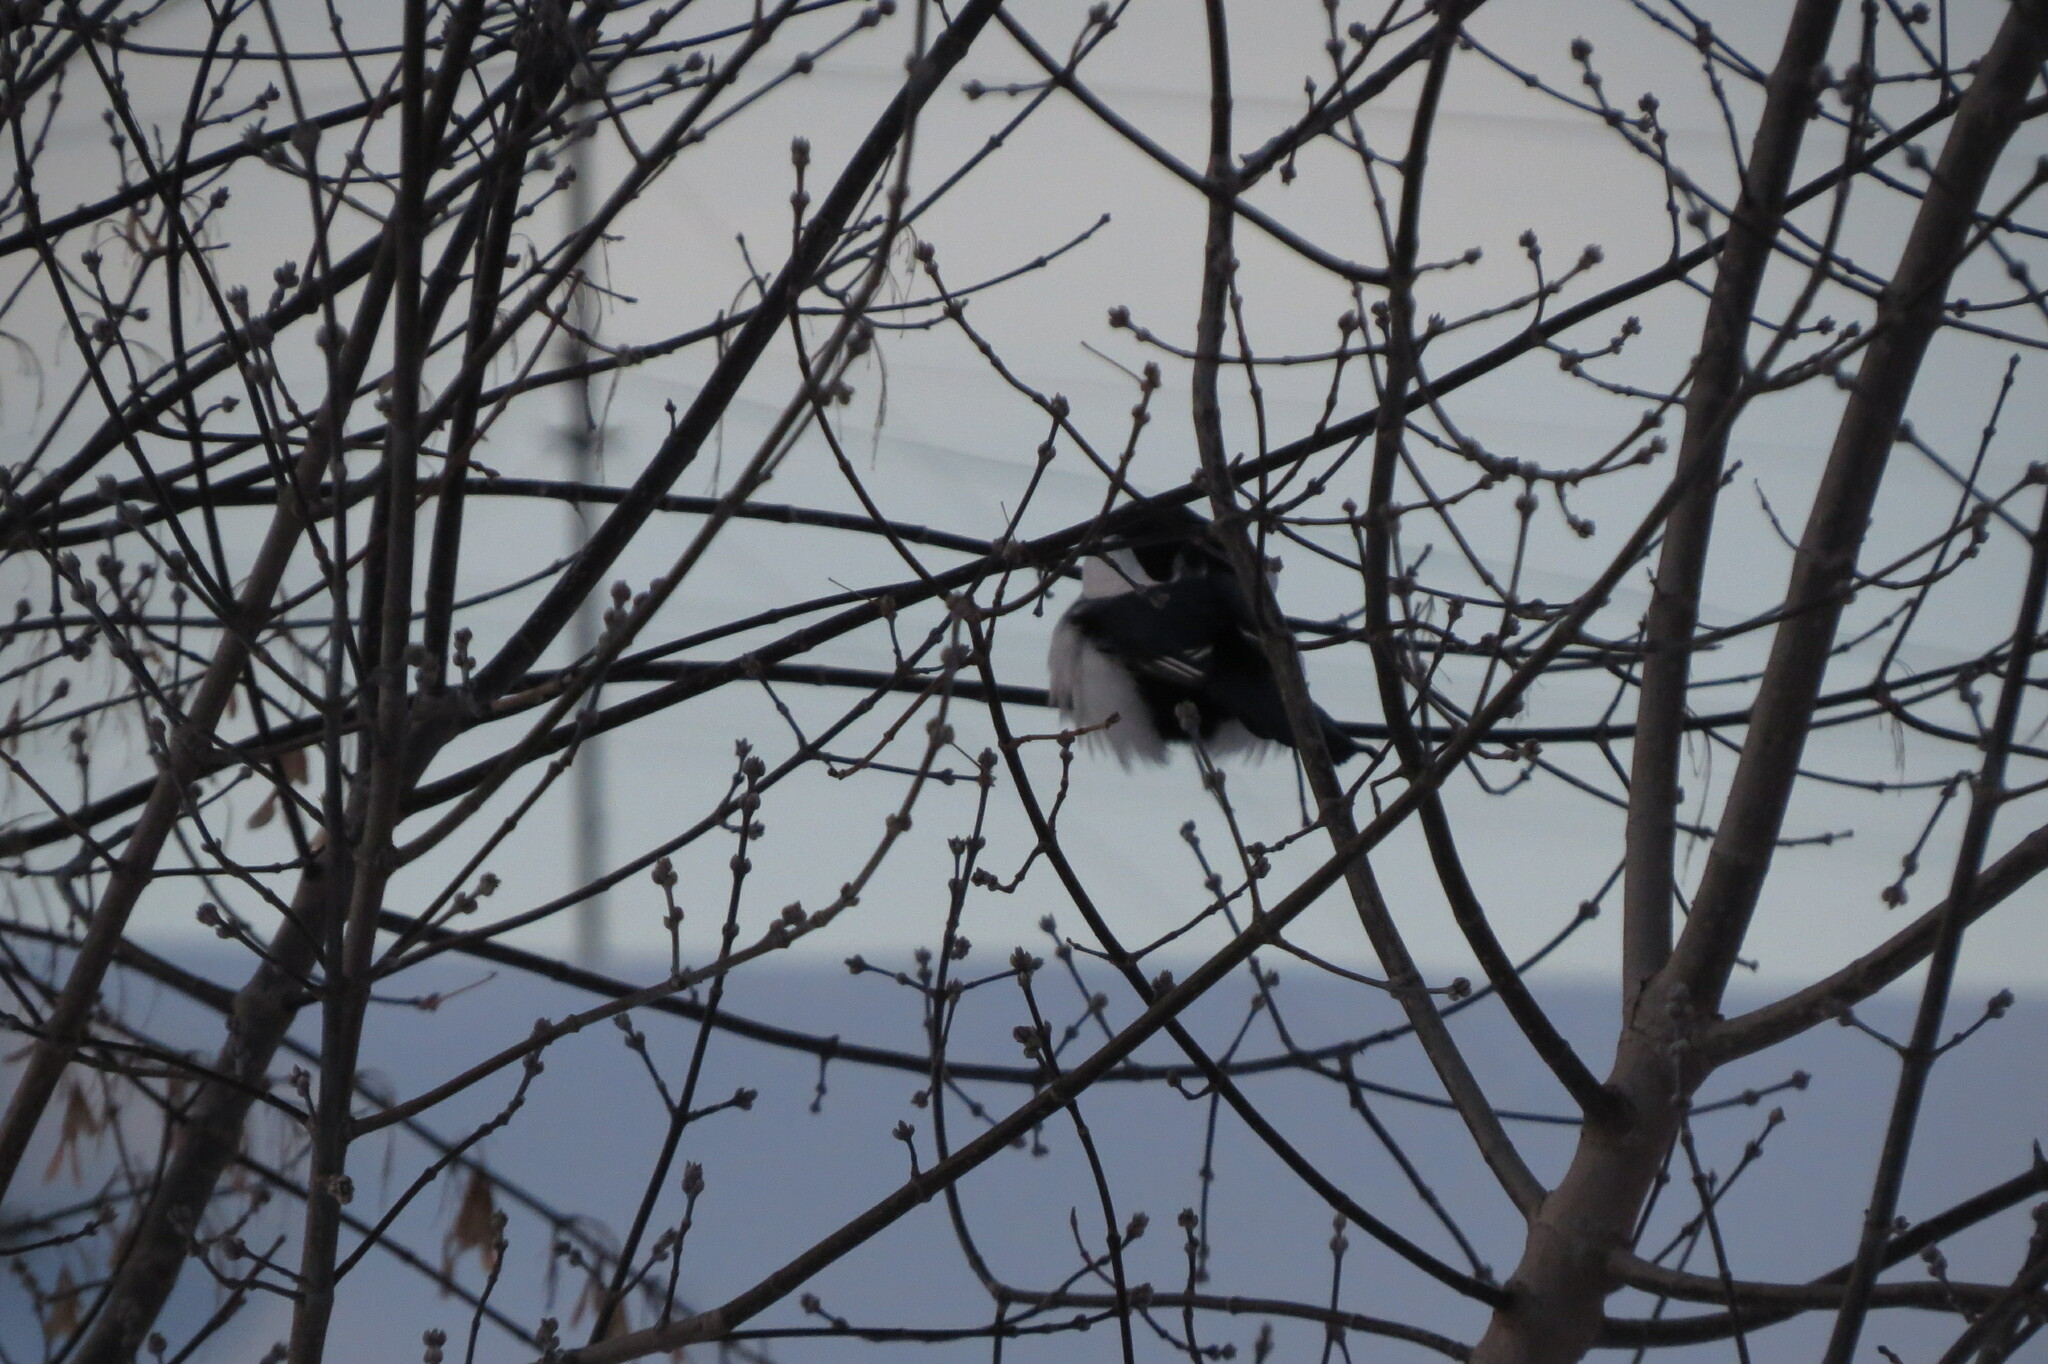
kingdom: Animalia
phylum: Chordata
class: Aves
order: Passeriformes
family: Corvidae
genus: Pica
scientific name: Pica pica
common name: Eurasian magpie
